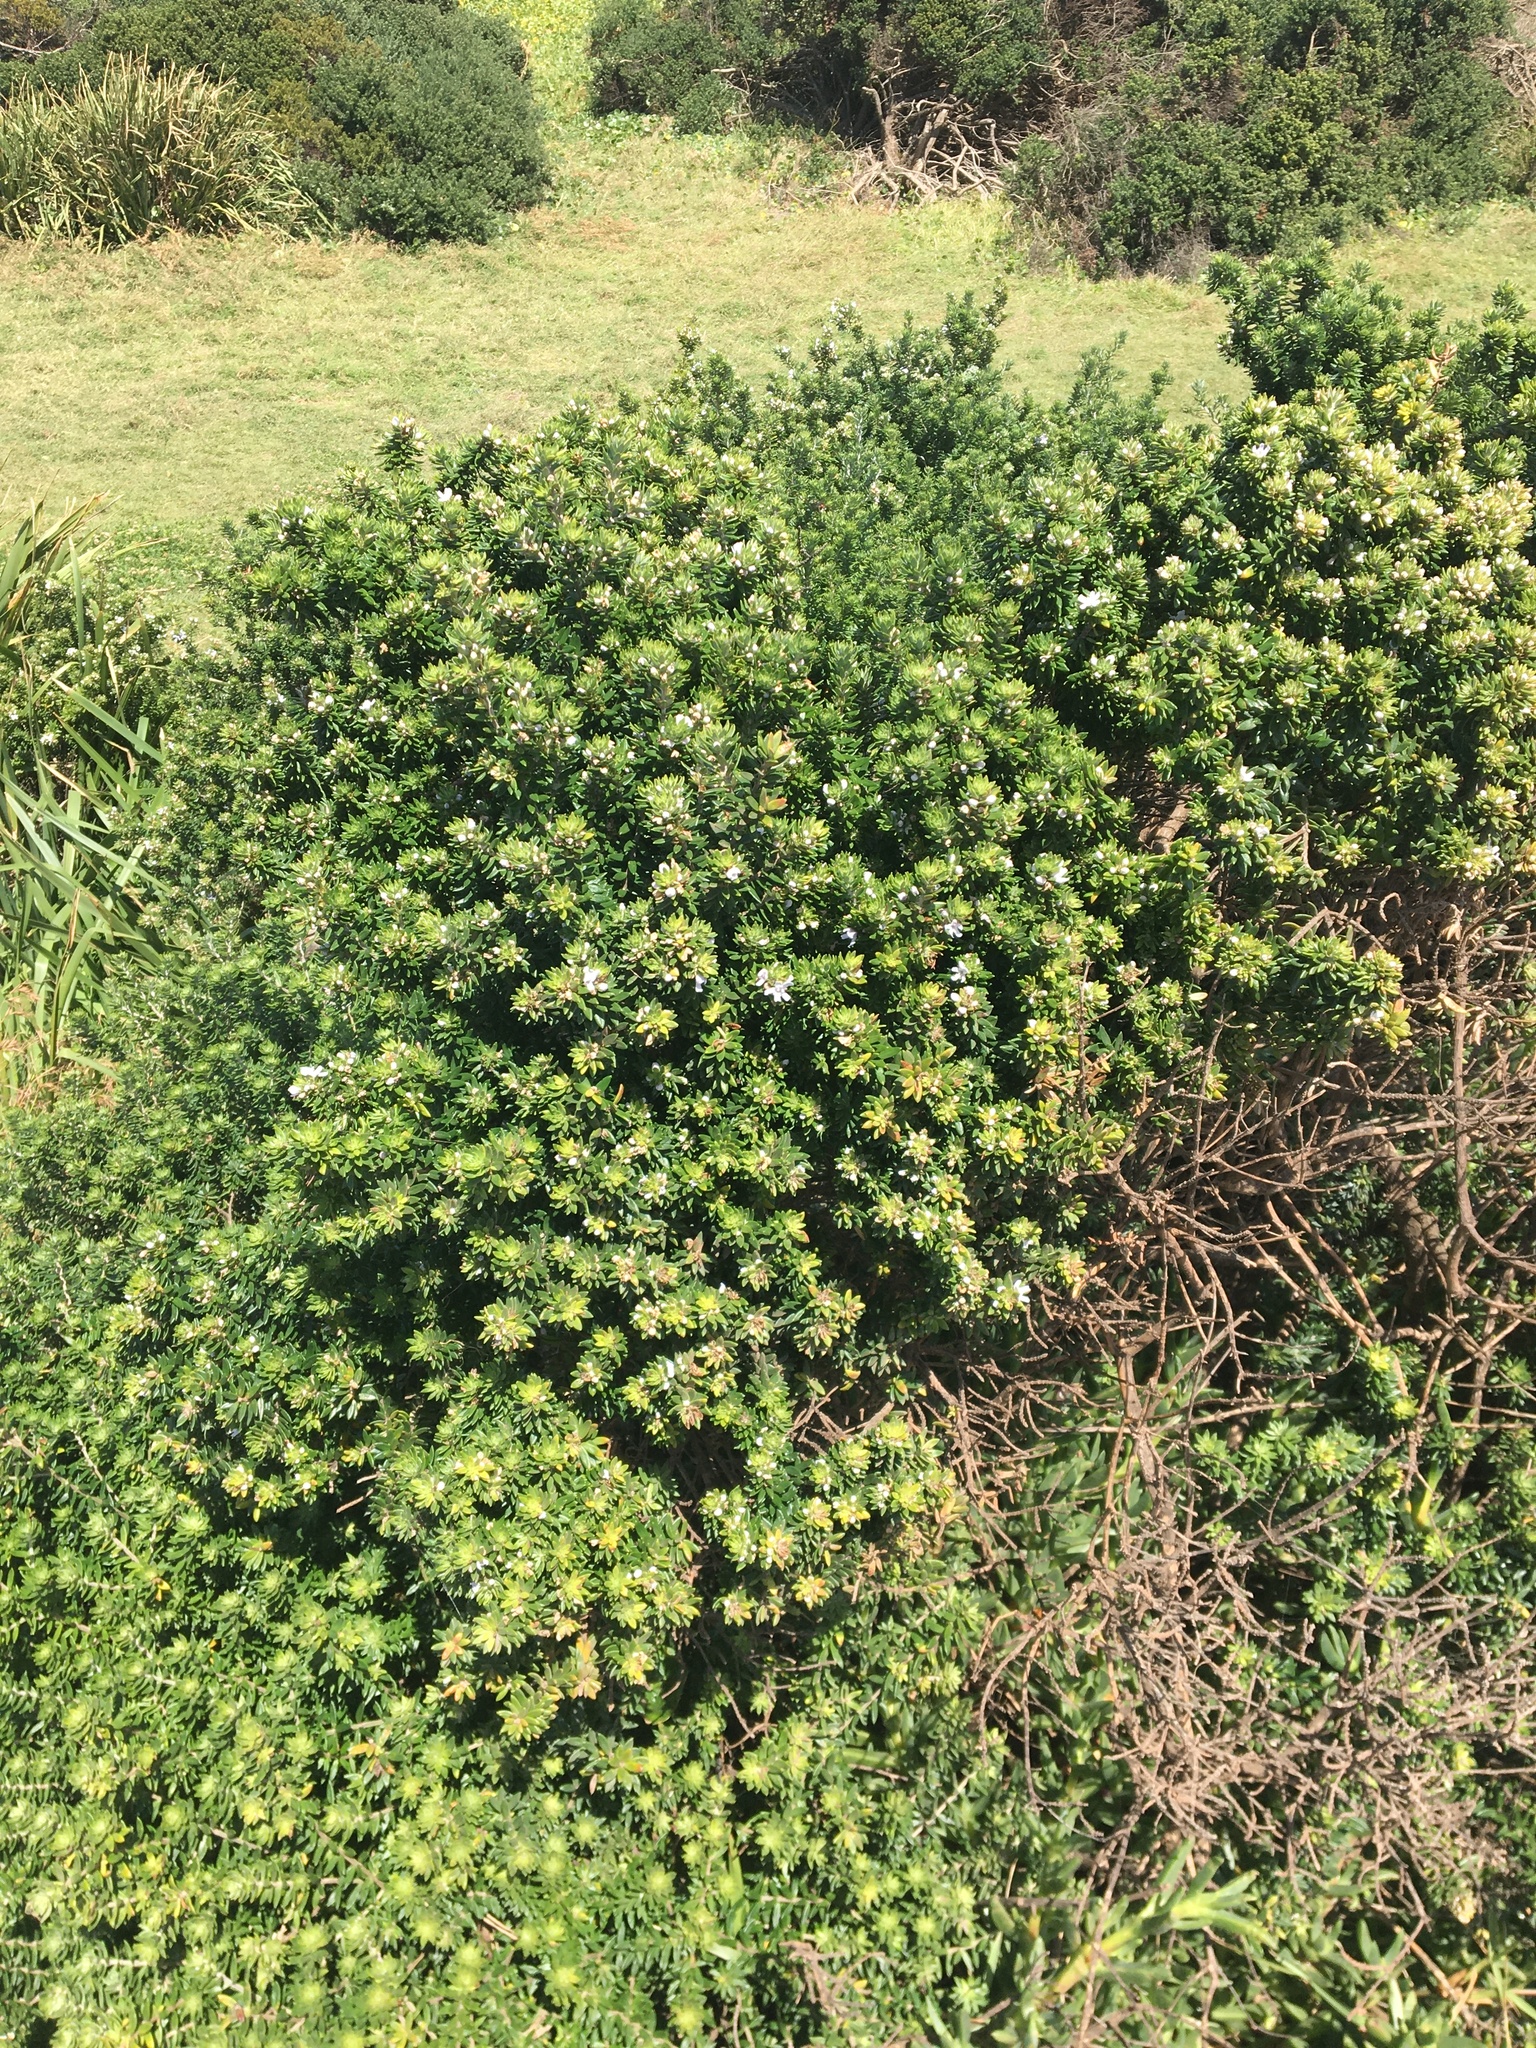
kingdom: Plantae
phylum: Tracheophyta
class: Magnoliopsida
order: Lamiales
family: Lamiaceae
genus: Westringia
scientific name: Westringia fruticosa
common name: Coastal-rosemary
